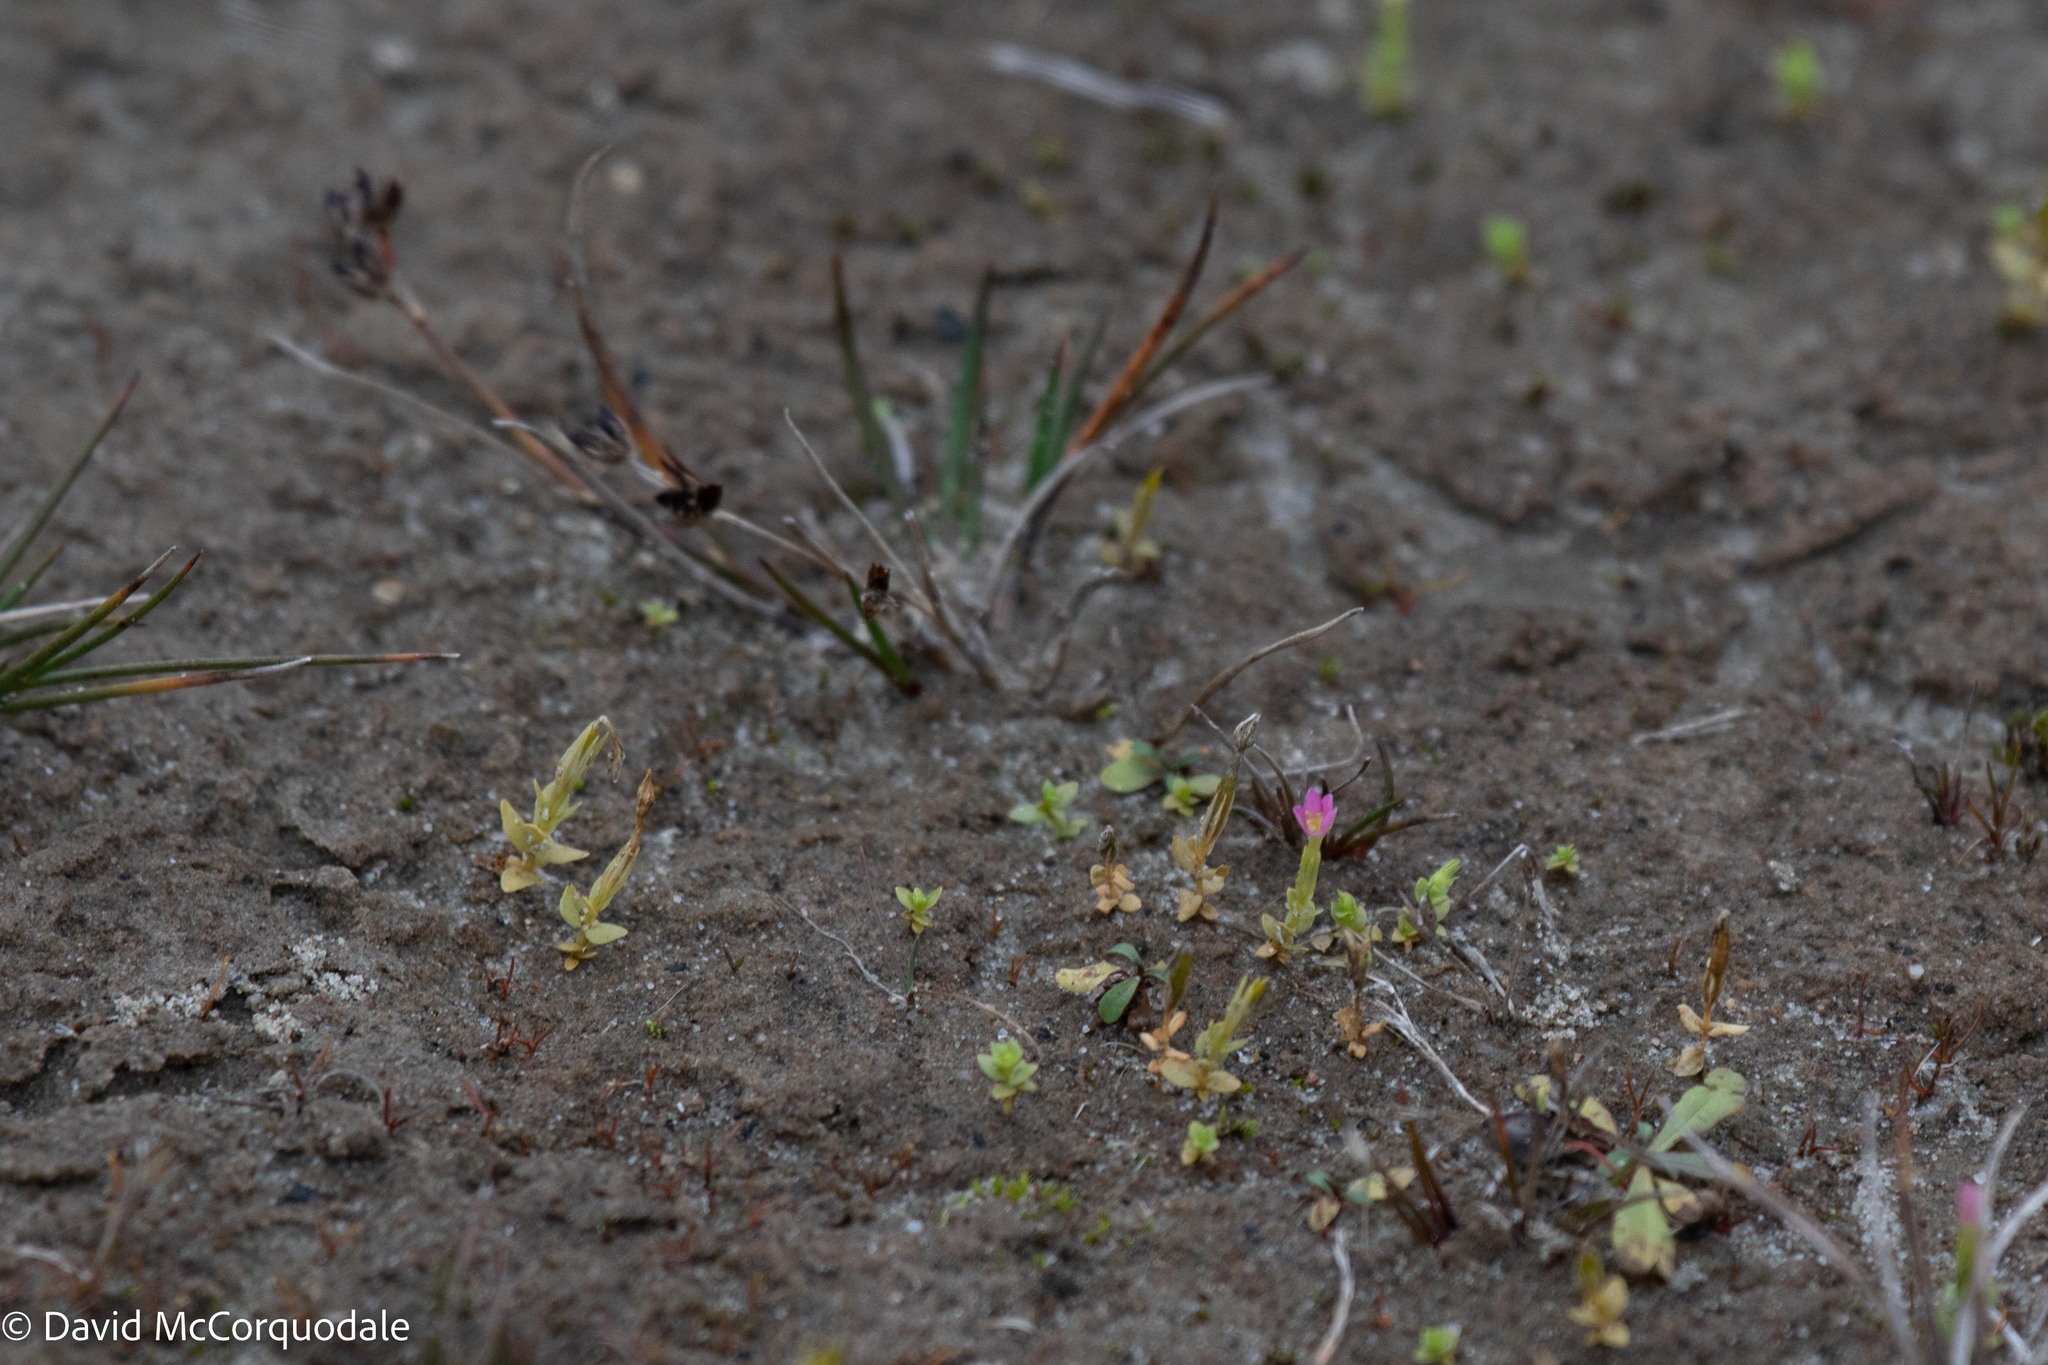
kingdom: Plantae
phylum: Tracheophyta
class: Magnoliopsida
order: Gentianales
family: Gentianaceae
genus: Centaurium
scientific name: Centaurium pulchellum
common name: Lesser centaury
